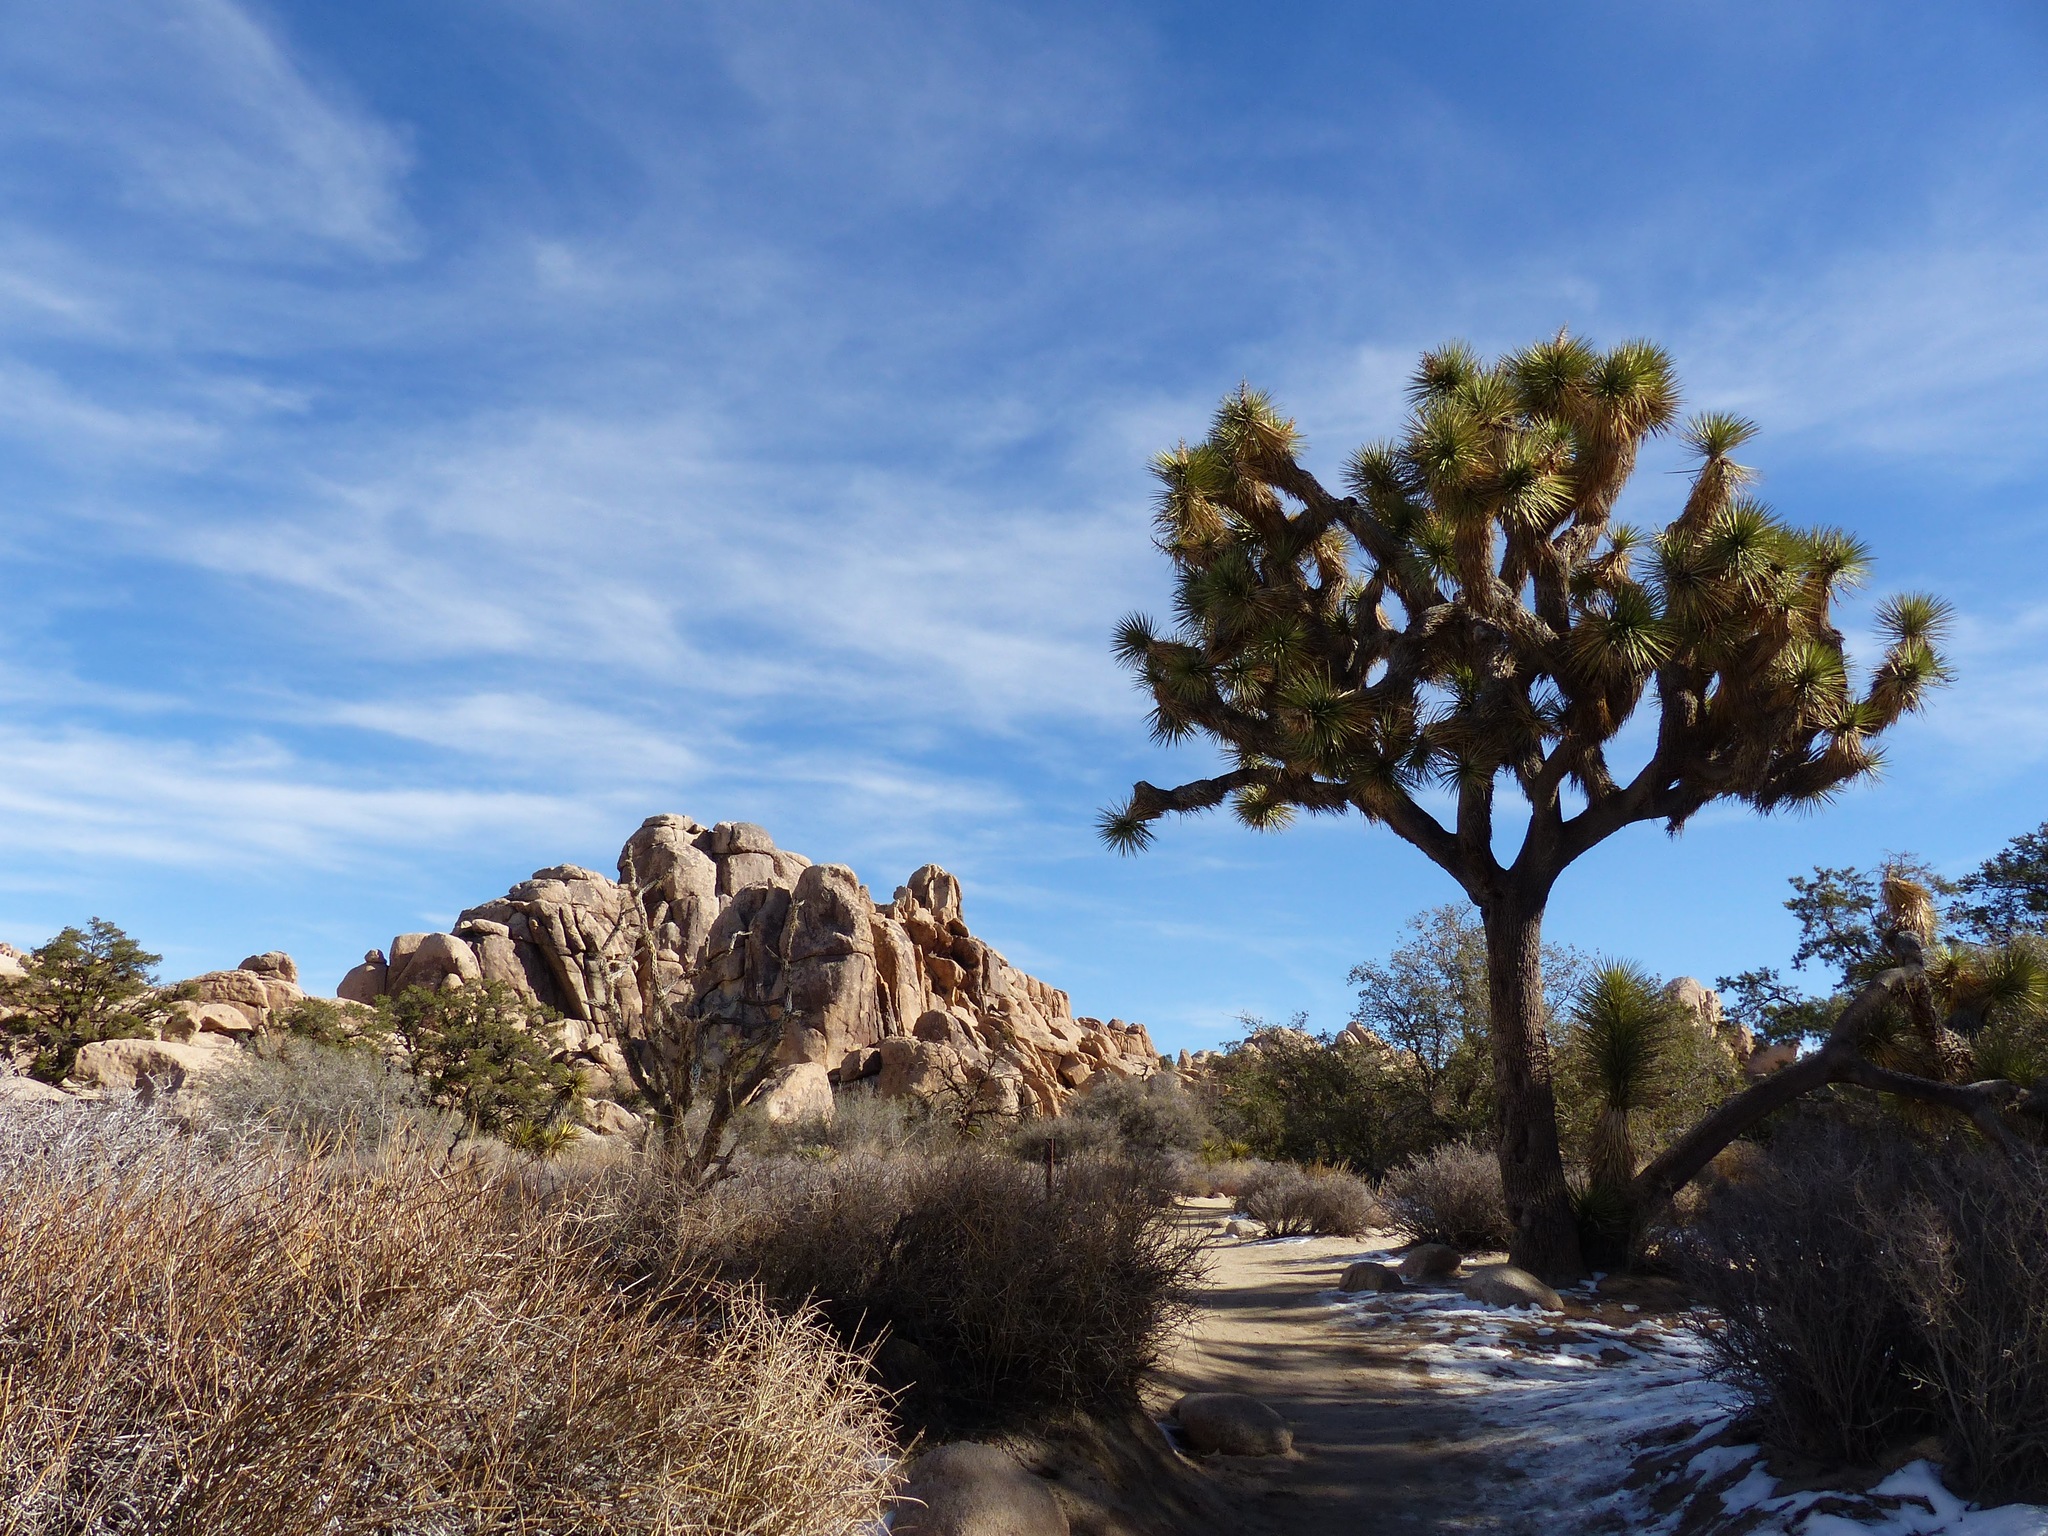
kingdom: Plantae
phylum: Tracheophyta
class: Liliopsida
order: Asparagales
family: Asparagaceae
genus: Yucca
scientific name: Yucca brevifolia
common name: Joshua tree
